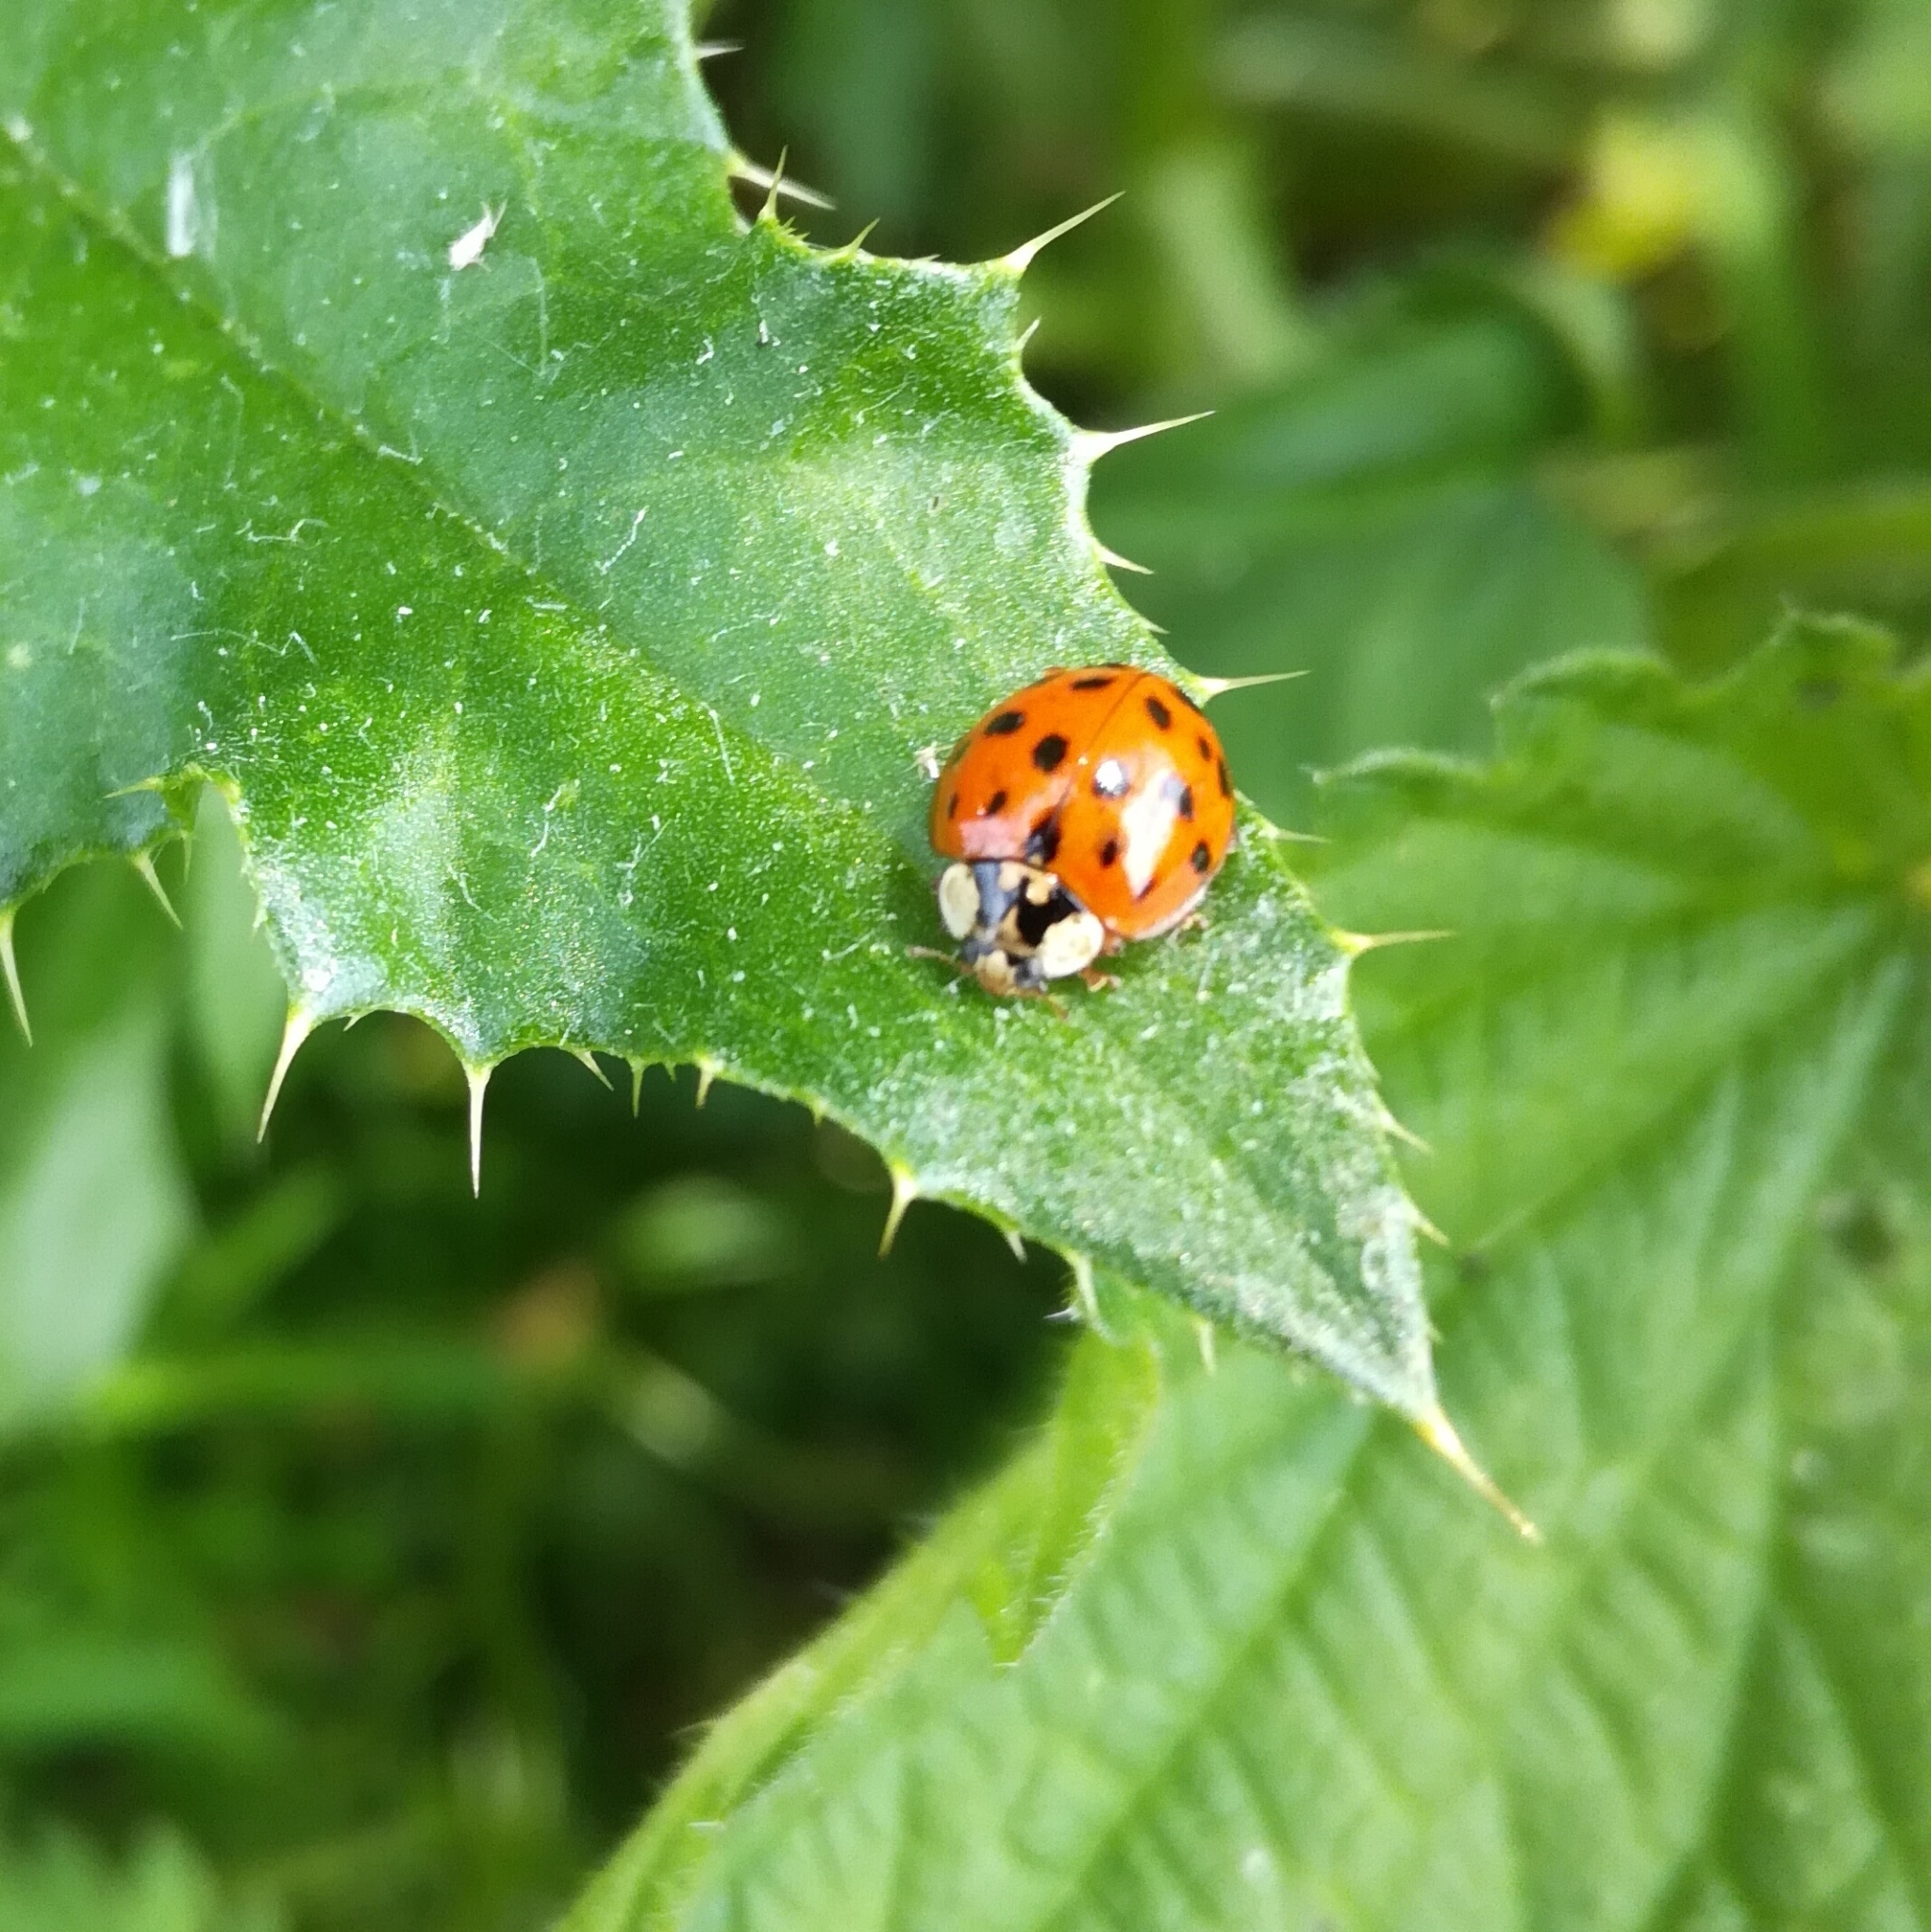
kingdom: Animalia
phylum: Arthropoda
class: Insecta
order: Coleoptera
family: Coccinellidae
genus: Harmonia
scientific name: Harmonia axyridis
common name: Harlequin ladybird
